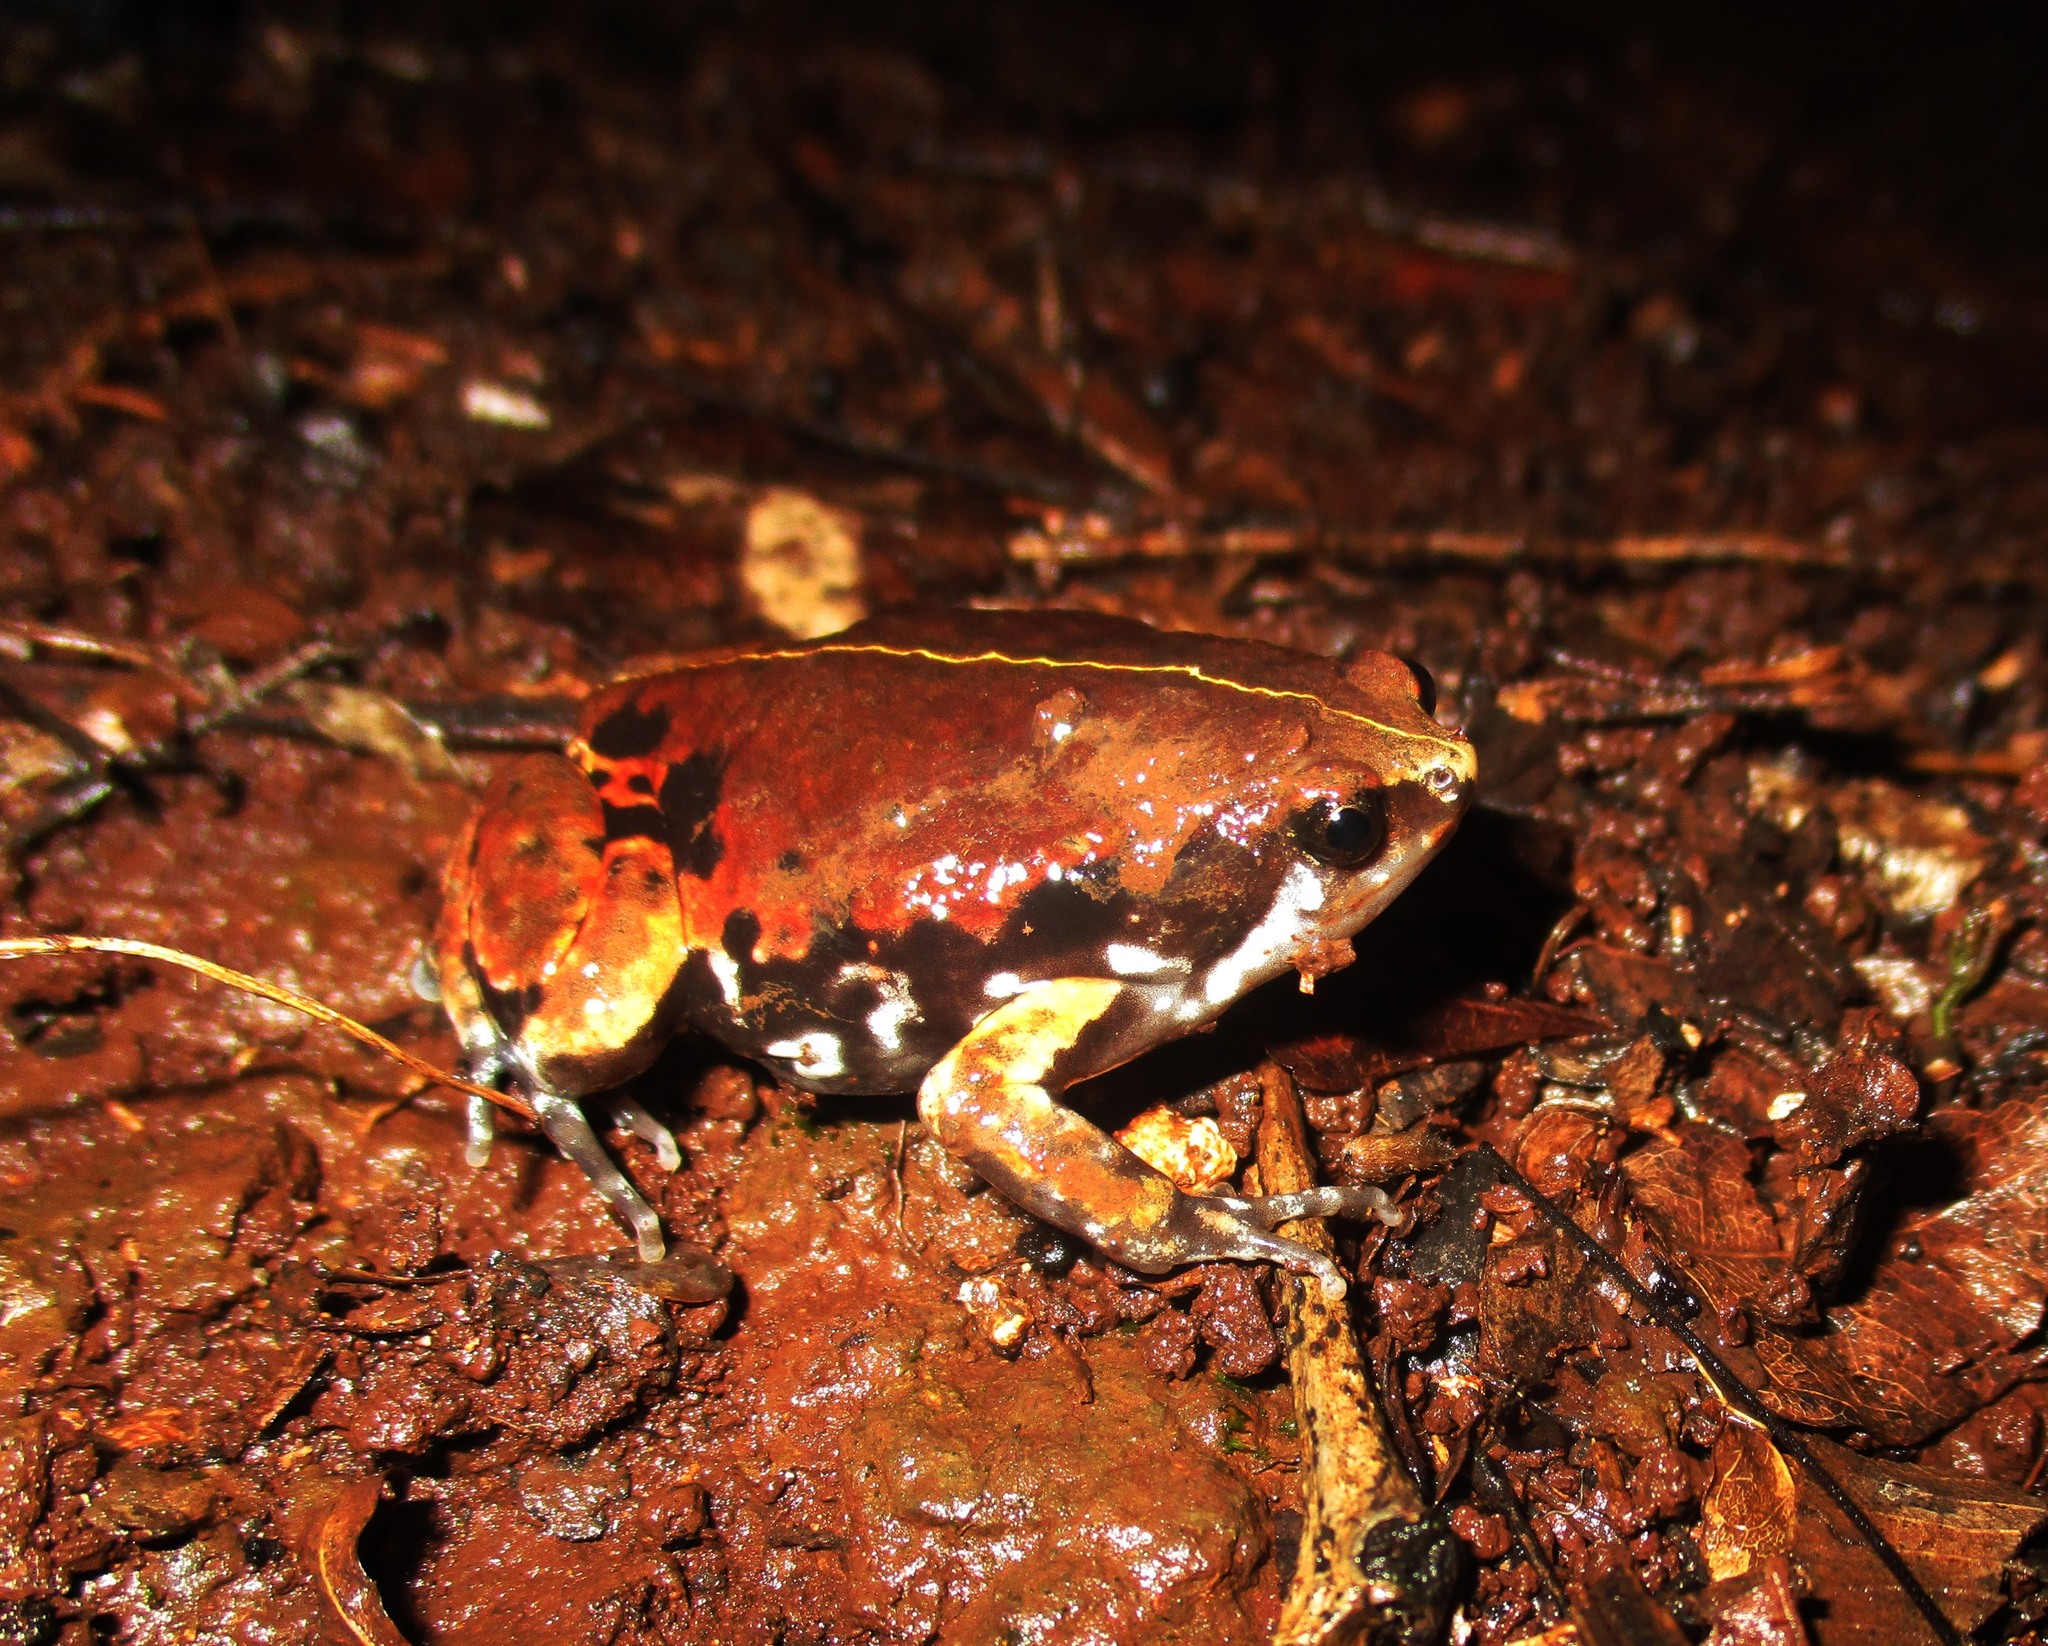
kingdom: Animalia
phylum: Chordata
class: Amphibia
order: Anura
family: Microhylidae
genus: Hypopachus
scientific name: Hypopachus variolosus
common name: Sheep frog
